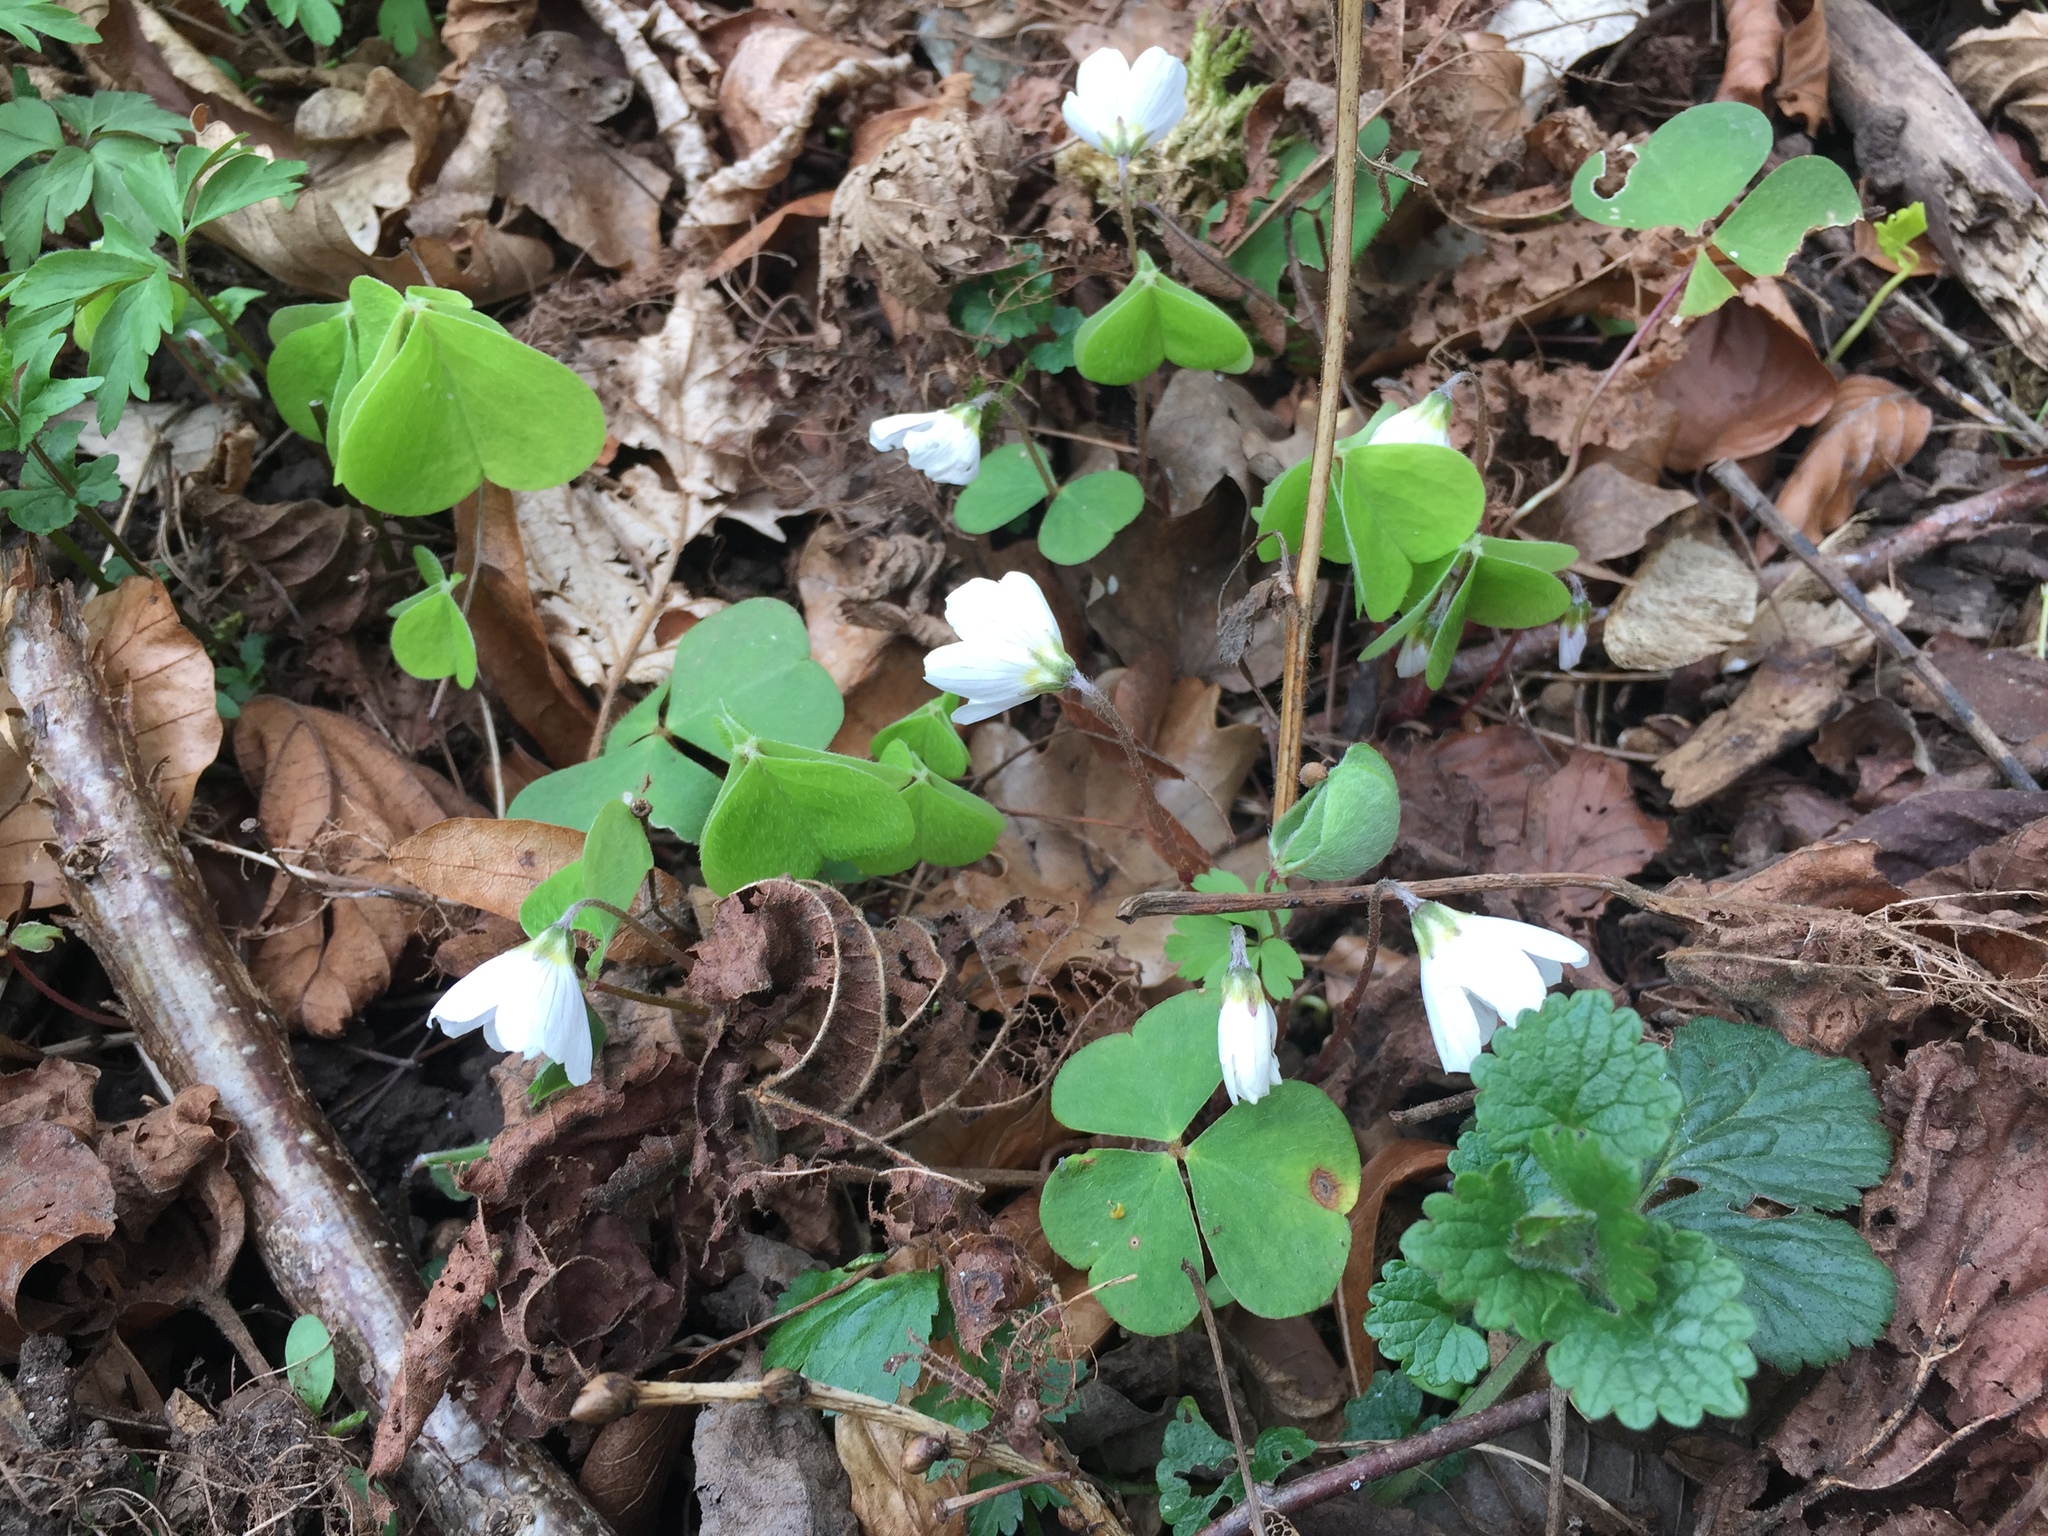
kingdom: Plantae
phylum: Tracheophyta
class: Magnoliopsida
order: Oxalidales
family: Oxalidaceae
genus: Oxalis
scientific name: Oxalis acetosella
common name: Wood-sorrel
